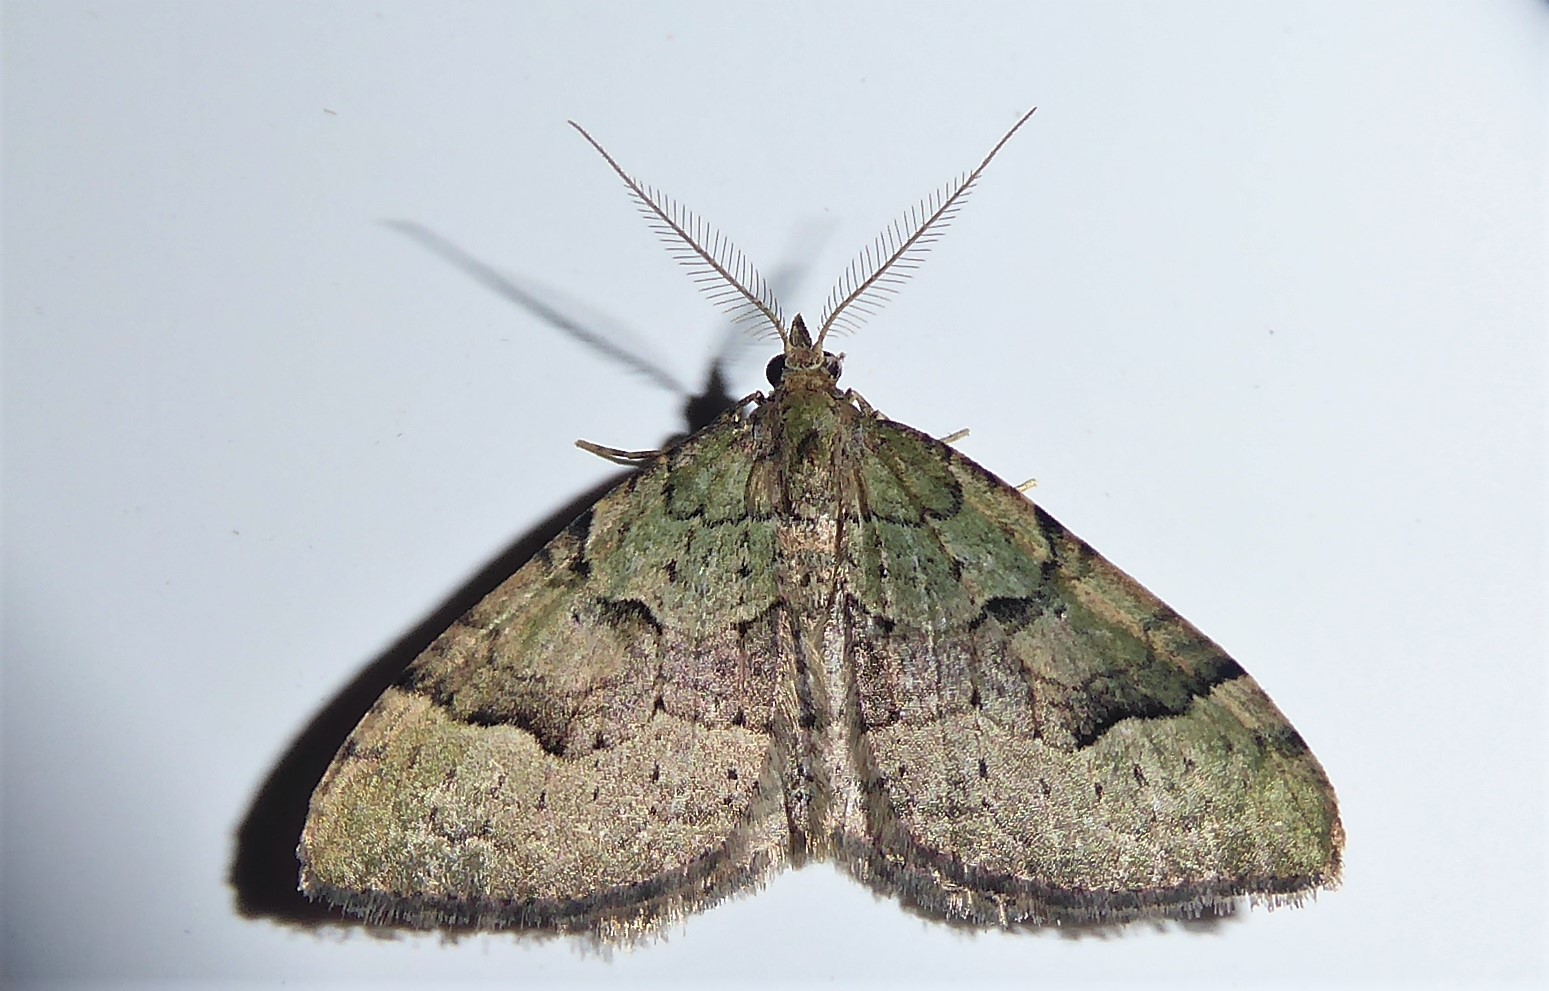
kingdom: Animalia
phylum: Arthropoda
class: Insecta
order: Lepidoptera
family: Geometridae
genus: Epyaxa
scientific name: Epyaxa rosearia
